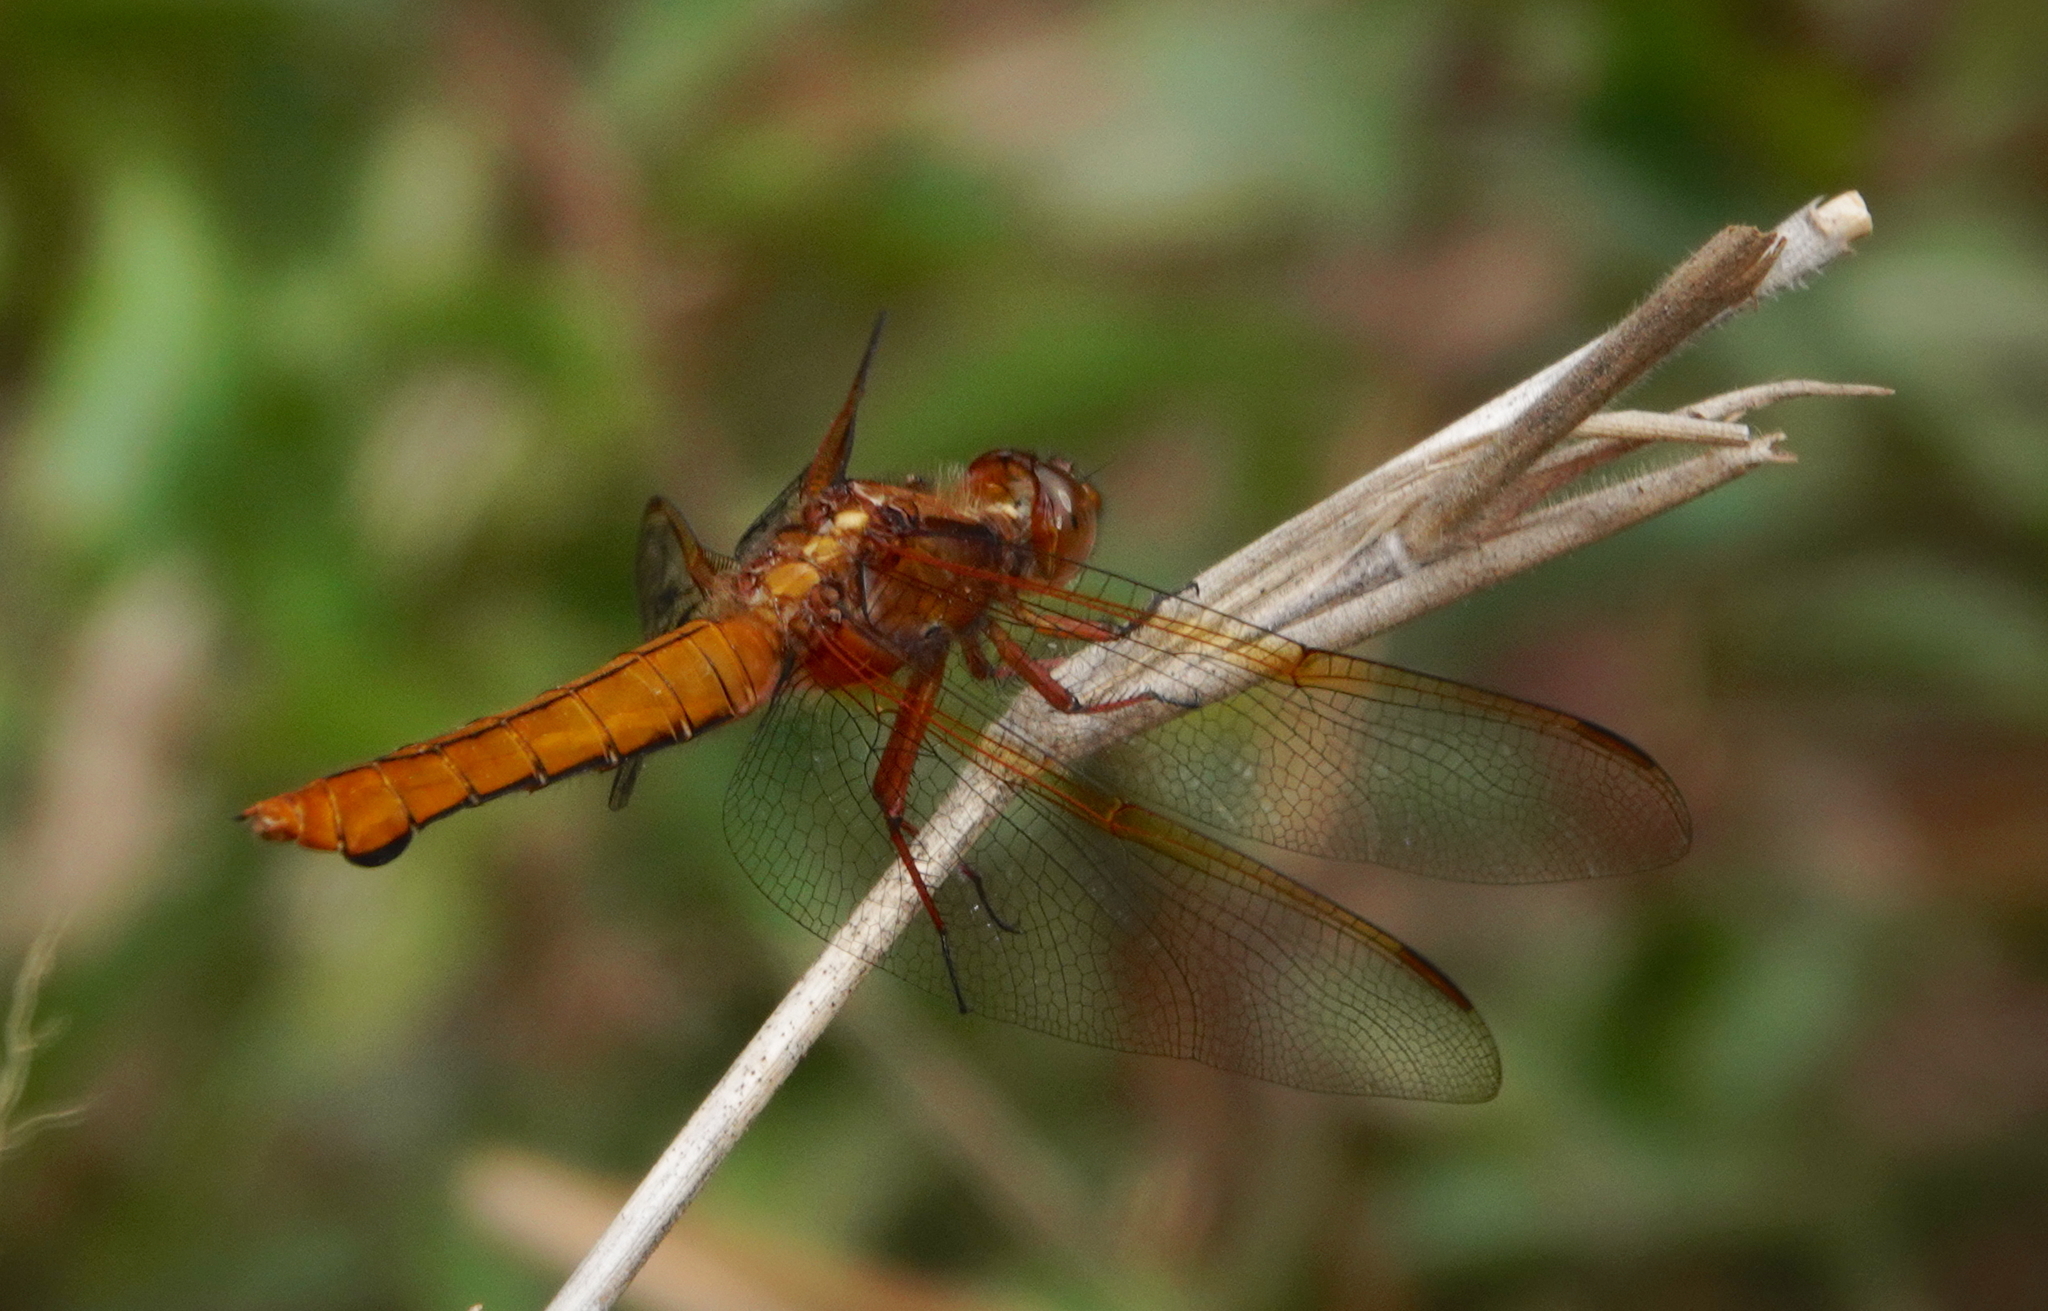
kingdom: Animalia
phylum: Arthropoda
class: Insecta
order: Odonata
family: Libellulidae
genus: Libellula
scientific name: Libellula croceipennis
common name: Neon skimmer
